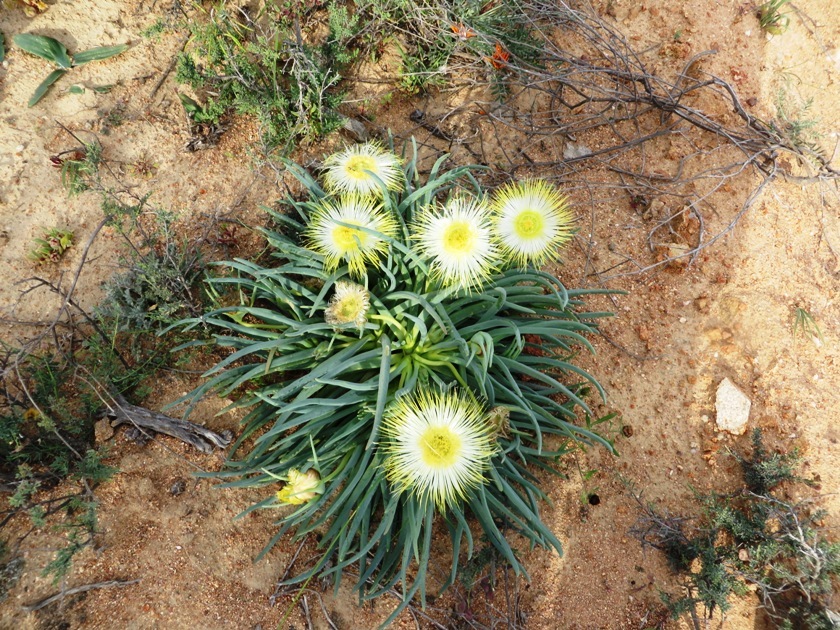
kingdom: Plantae
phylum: Tracheophyta
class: Magnoliopsida
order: Caryophyllales
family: Aizoaceae
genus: Conicosia
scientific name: Conicosia elongata
